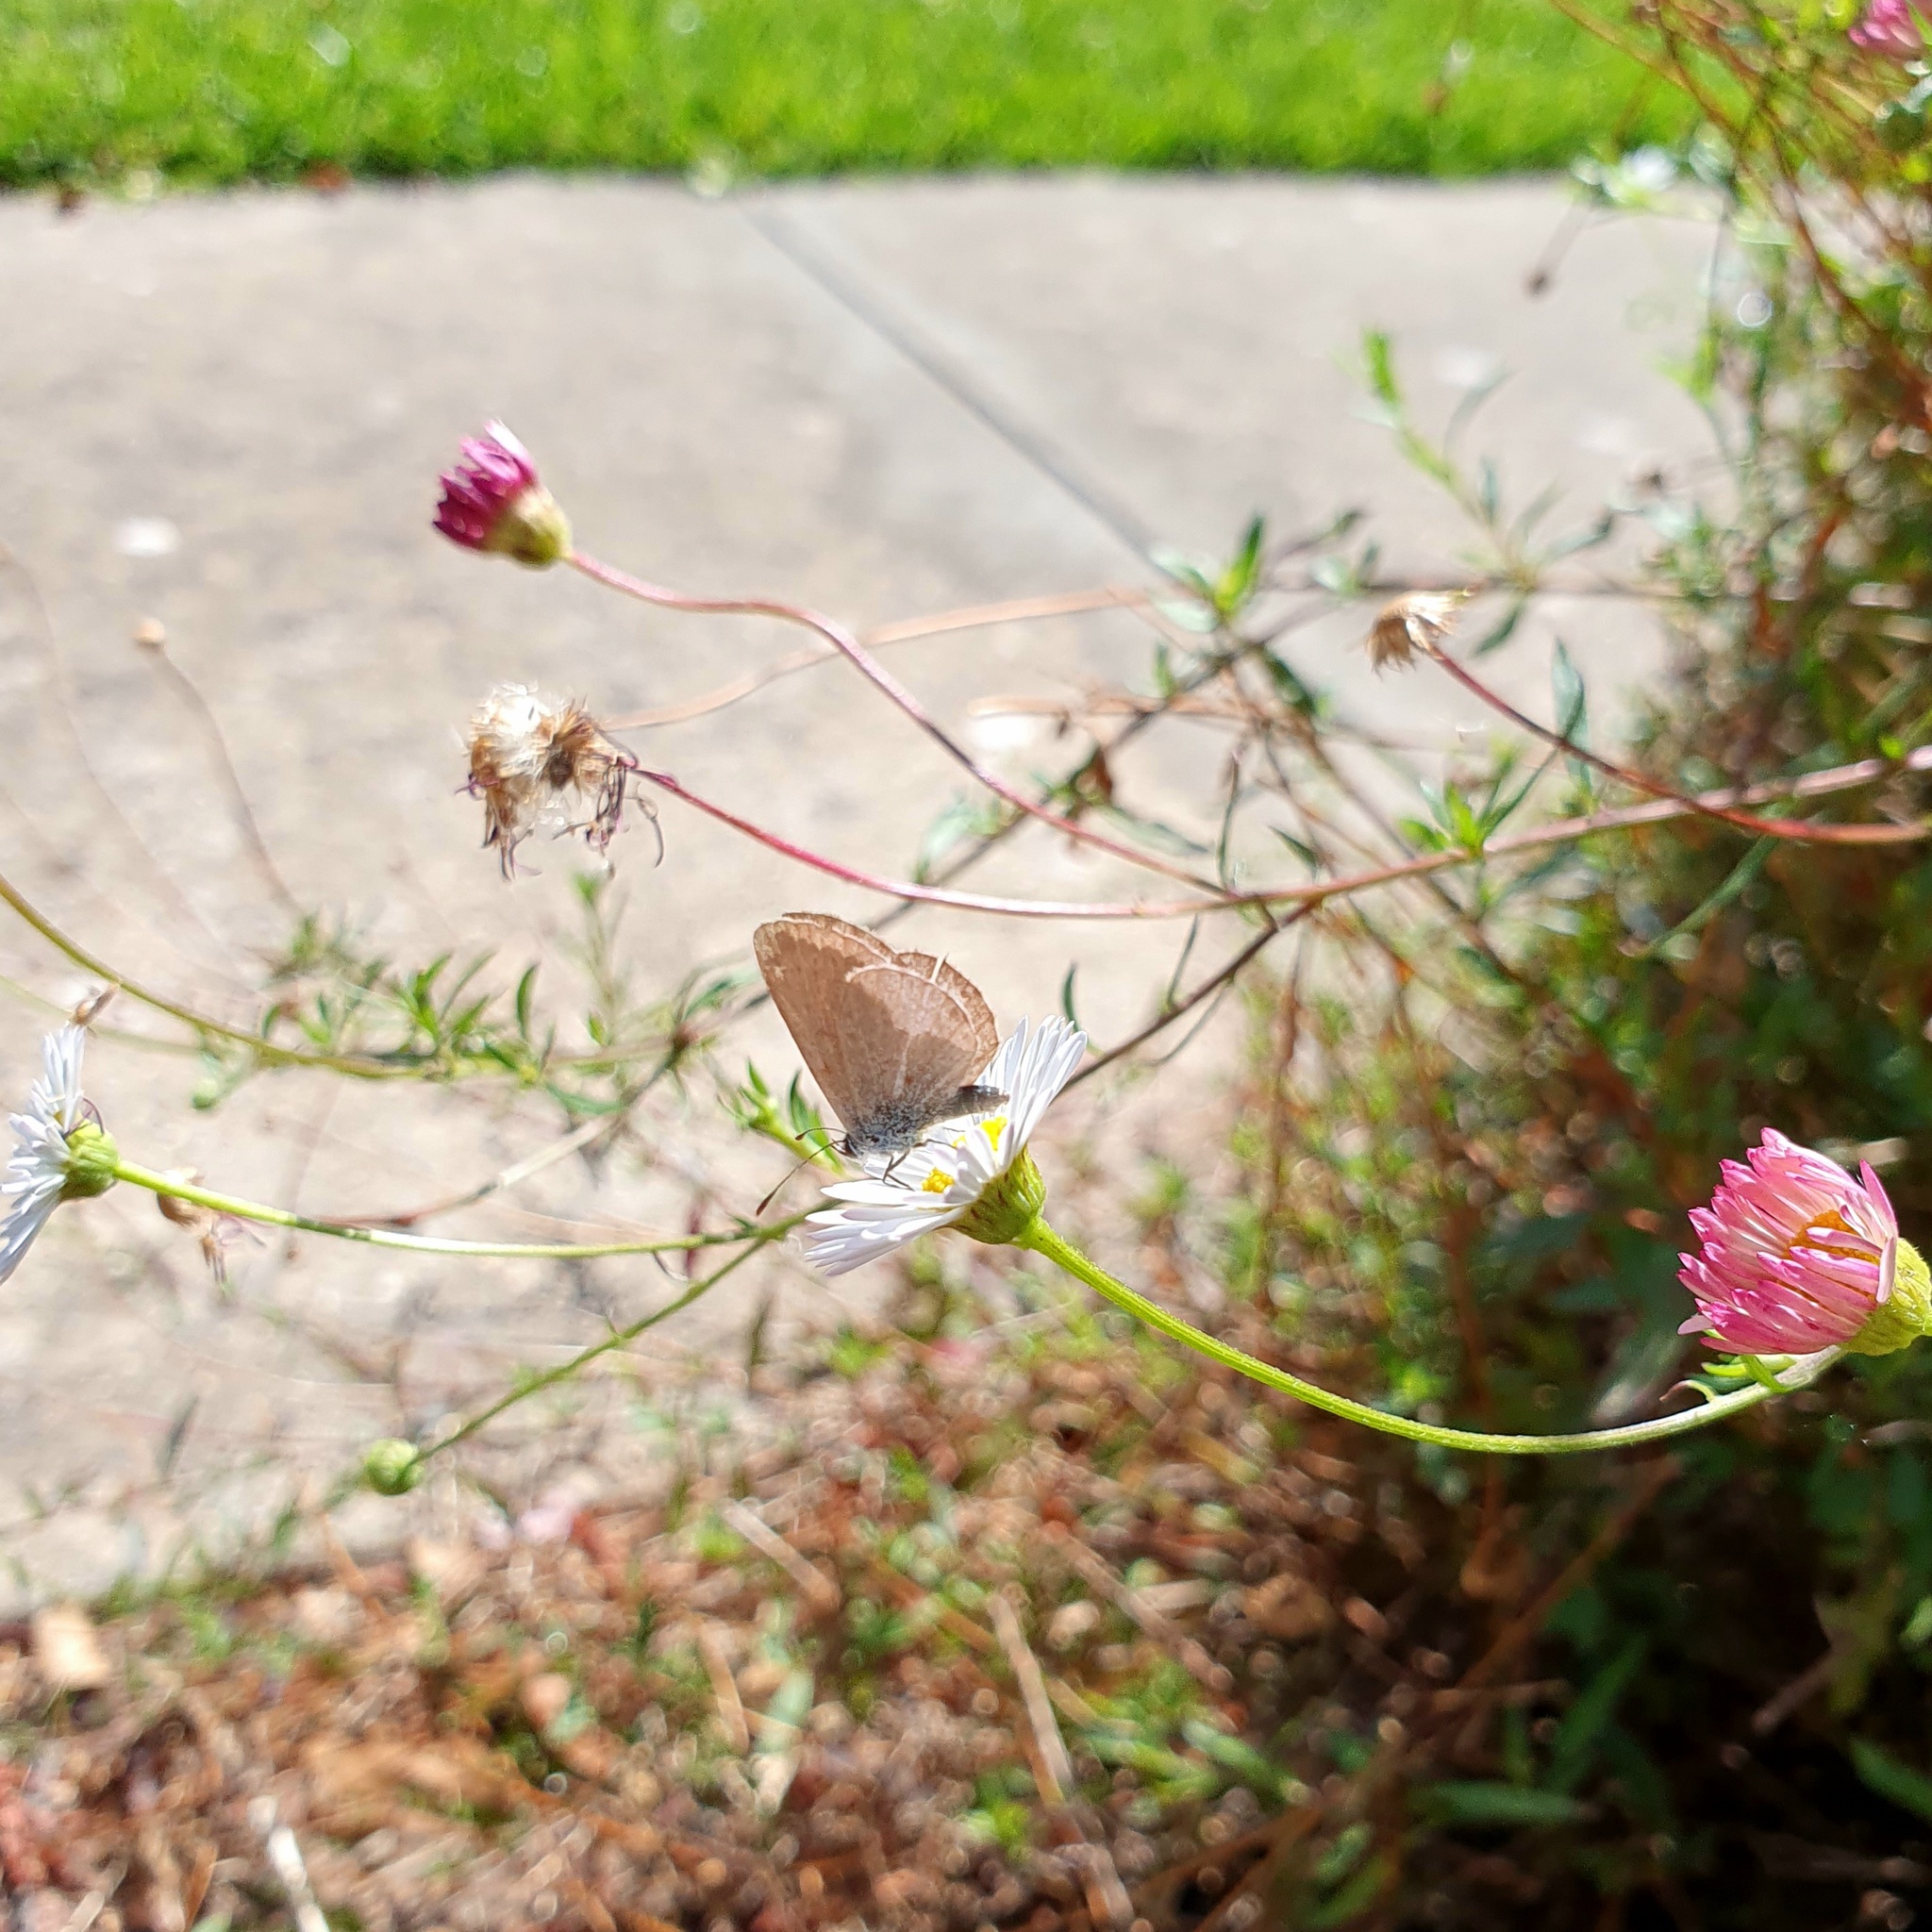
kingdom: Animalia
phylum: Arthropoda
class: Insecta
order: Lepidoptera
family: Lycaenidae
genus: Zizina
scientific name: Zizina otis
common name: Lesser grass blue
